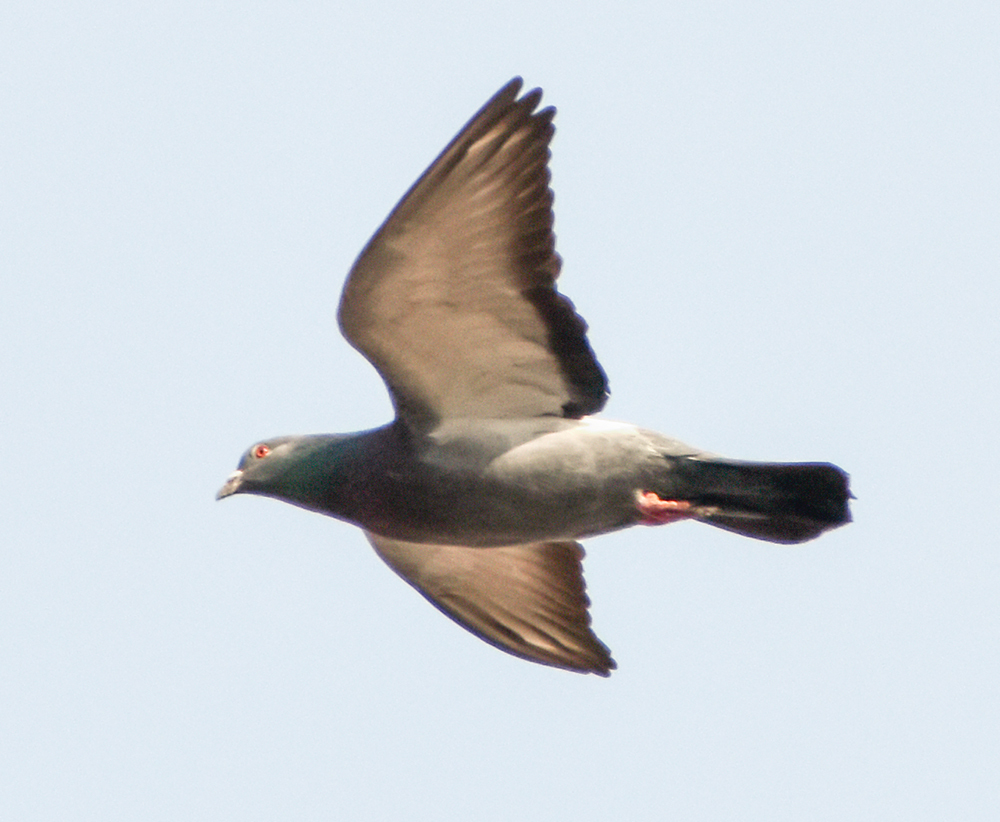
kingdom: Animalia
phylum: Chordata
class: Aves
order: Columbiformes
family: Columbidae
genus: Columba
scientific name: Columba livia
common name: Rock pigeon
